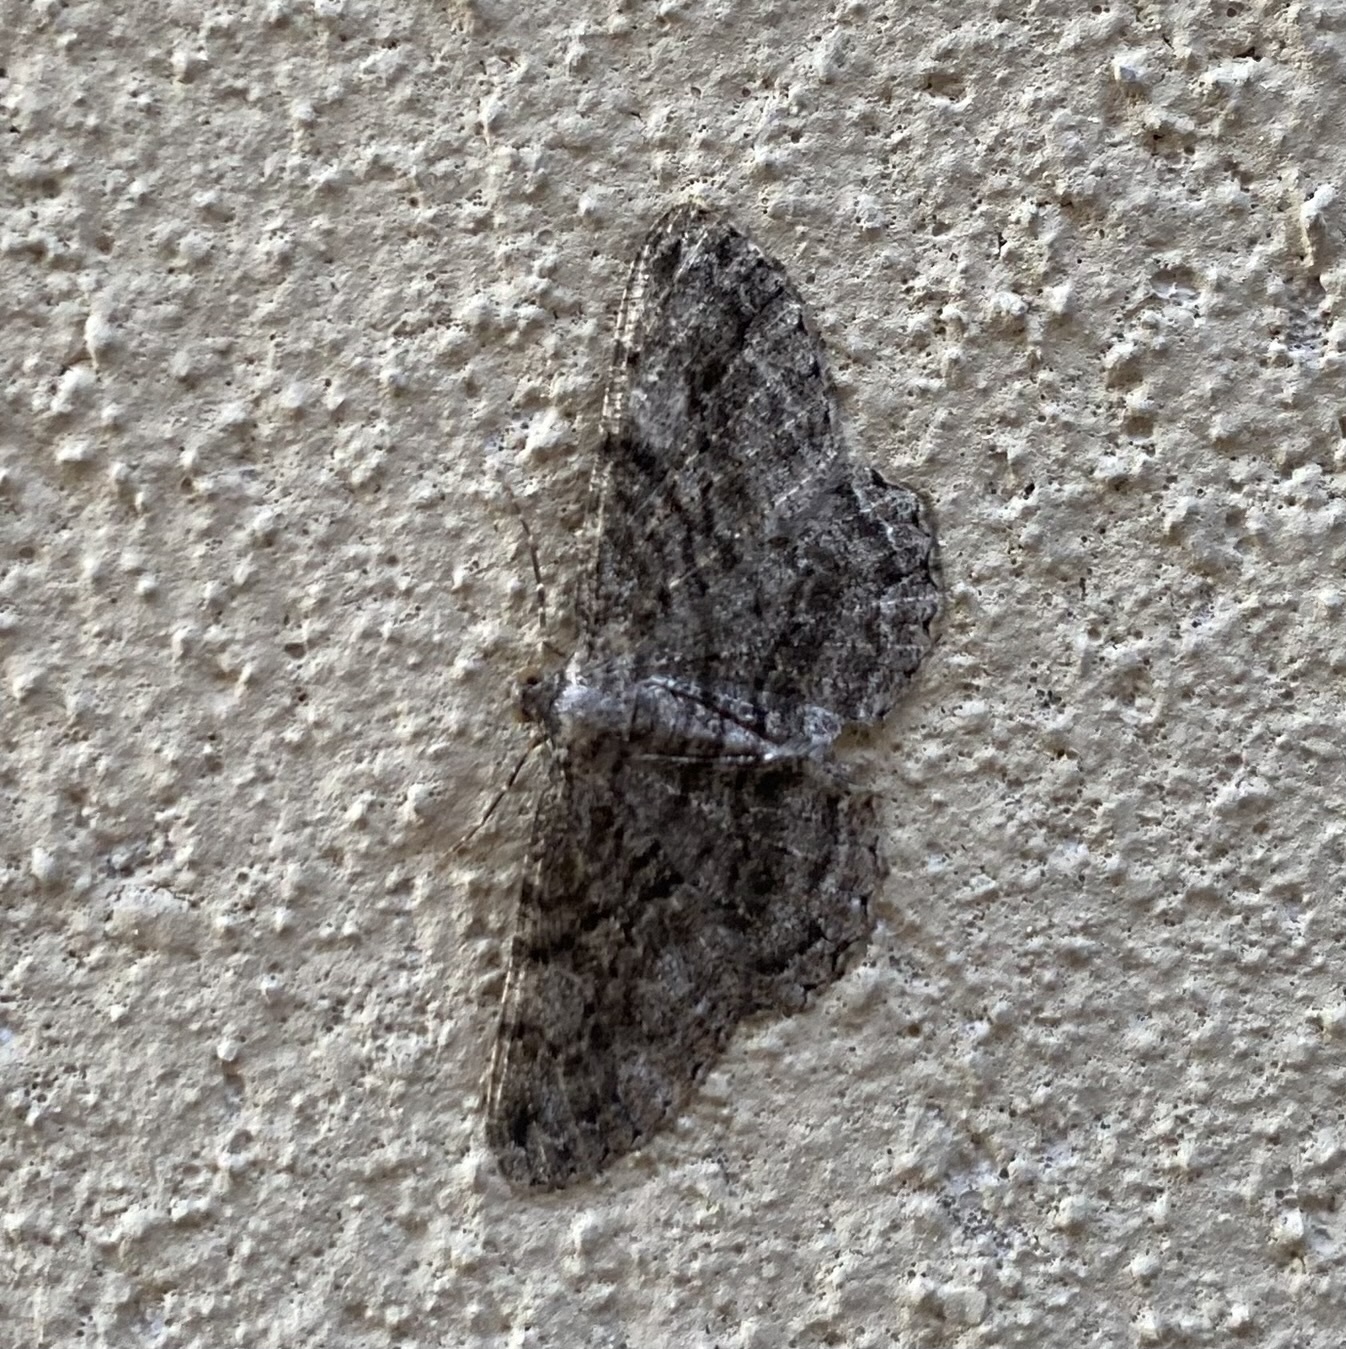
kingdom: Animalia
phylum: Arthropoda
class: Insecta
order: Lepidoptera
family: Geometridae
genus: Peribatodes
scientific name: Peribatodes rhomboidaria
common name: Willow beauty
